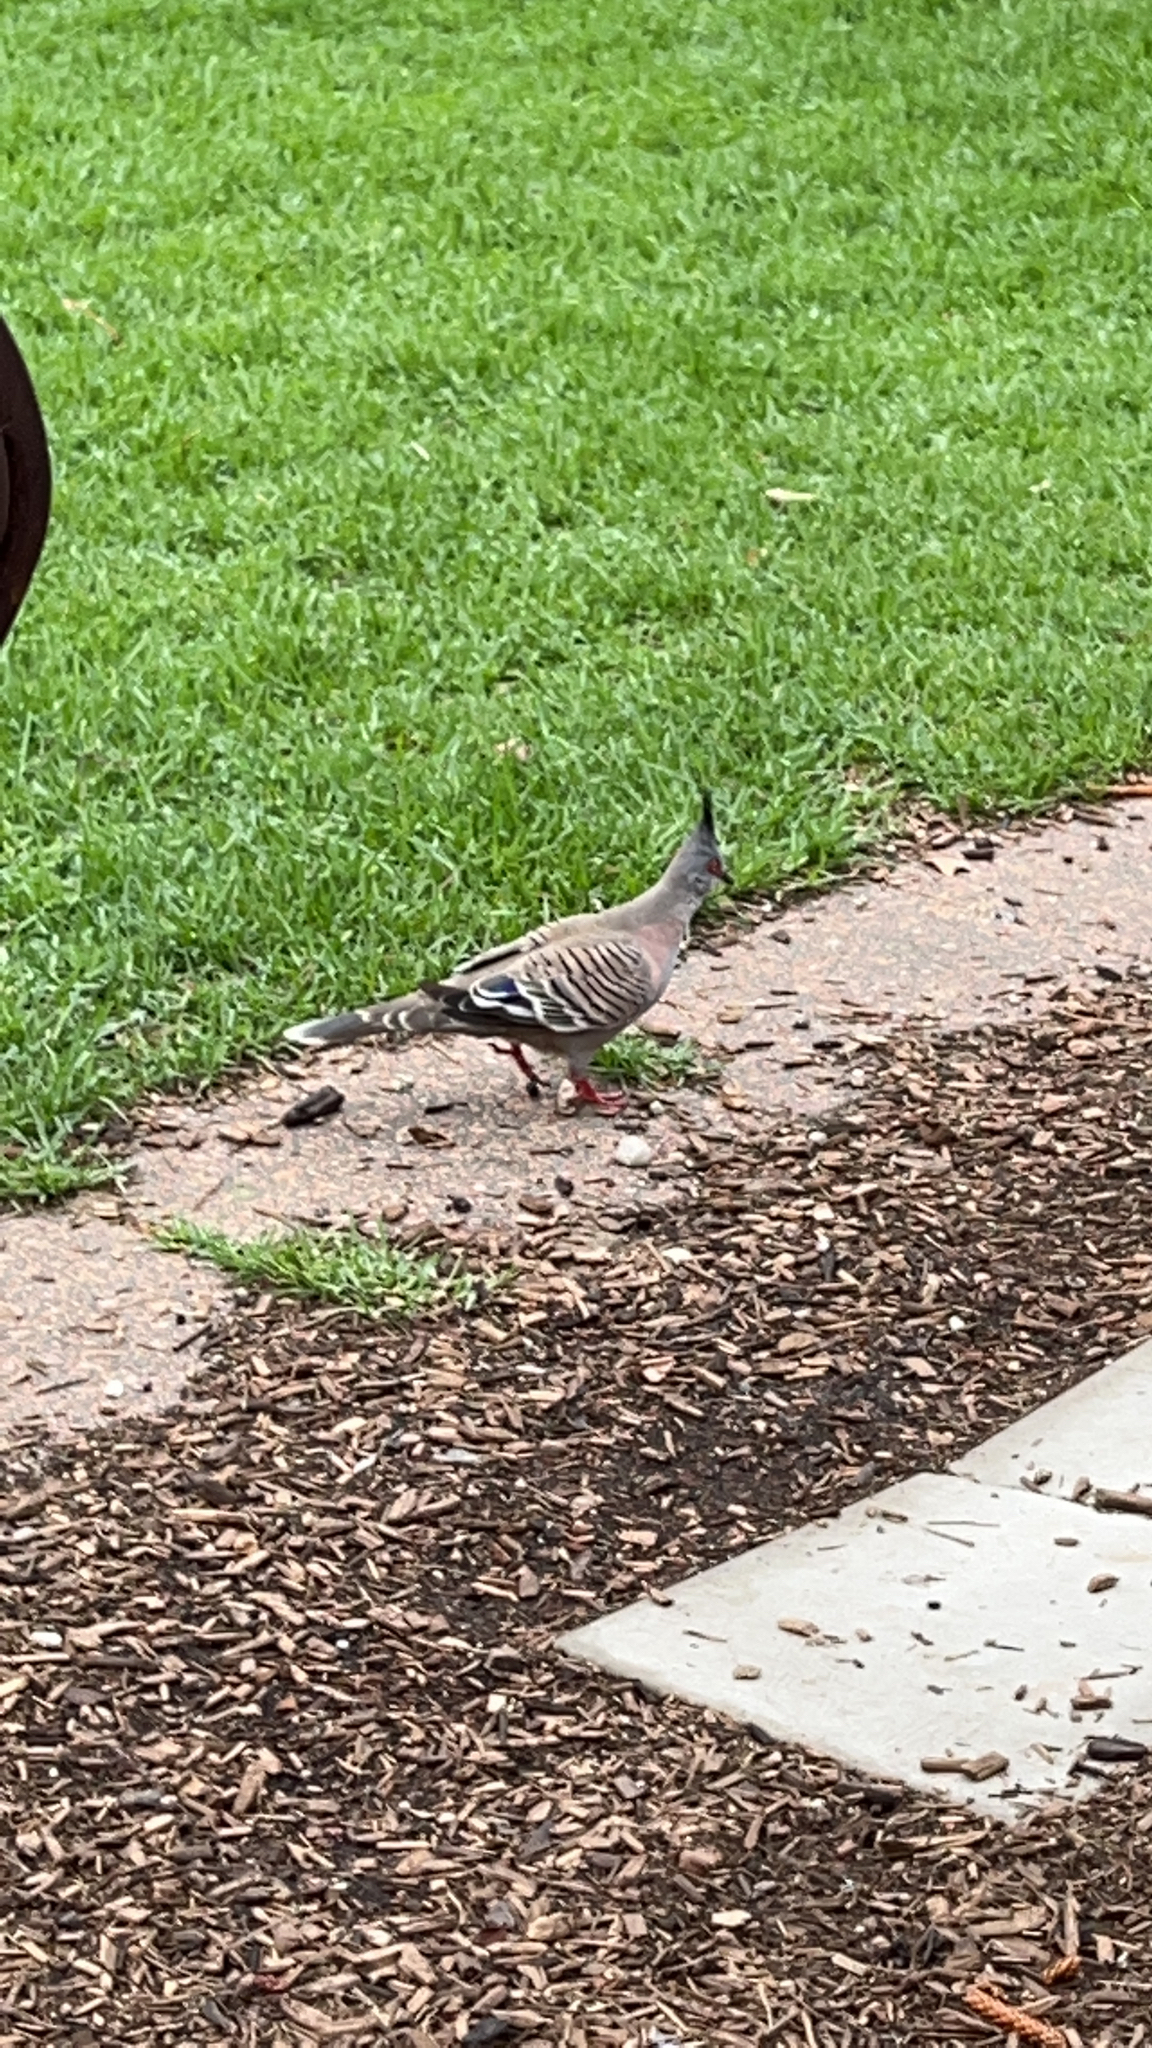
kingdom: Animalia
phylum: Chordata
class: Aves
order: Columbiformes
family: Columbidae
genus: Ocyphaps
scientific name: Ocyphaps lophotes
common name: Crested pigeon
